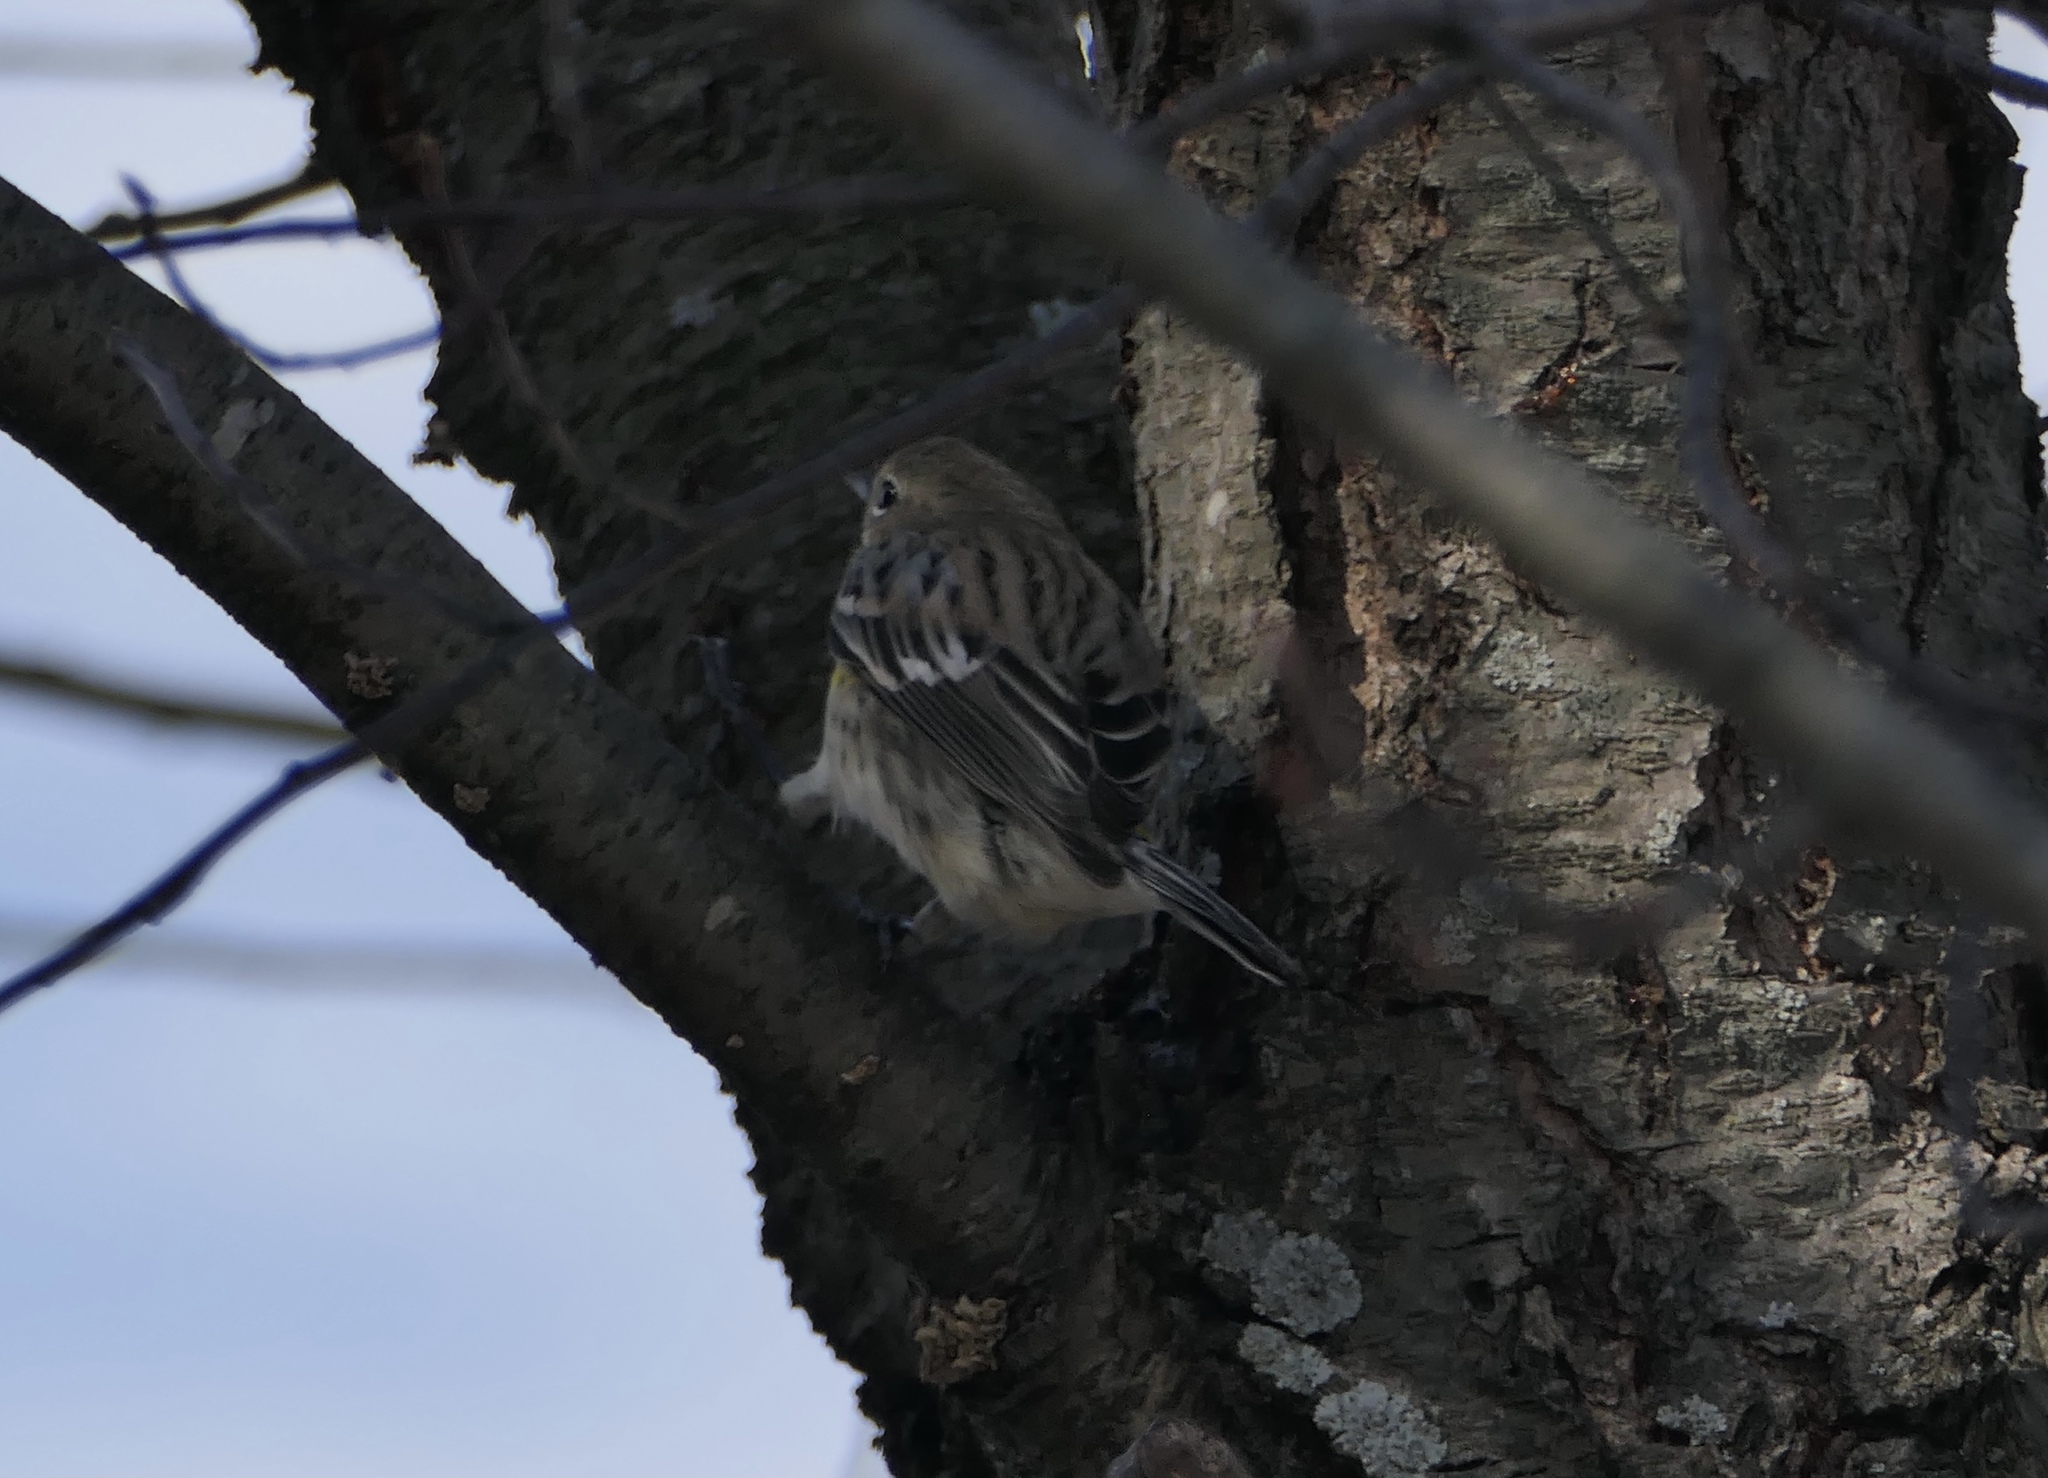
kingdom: Animalia
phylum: Chordata
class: Aves
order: Passeriformes
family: Parulidae
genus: Setophaga
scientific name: Setophaga coronata
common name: Myrtle warbler
